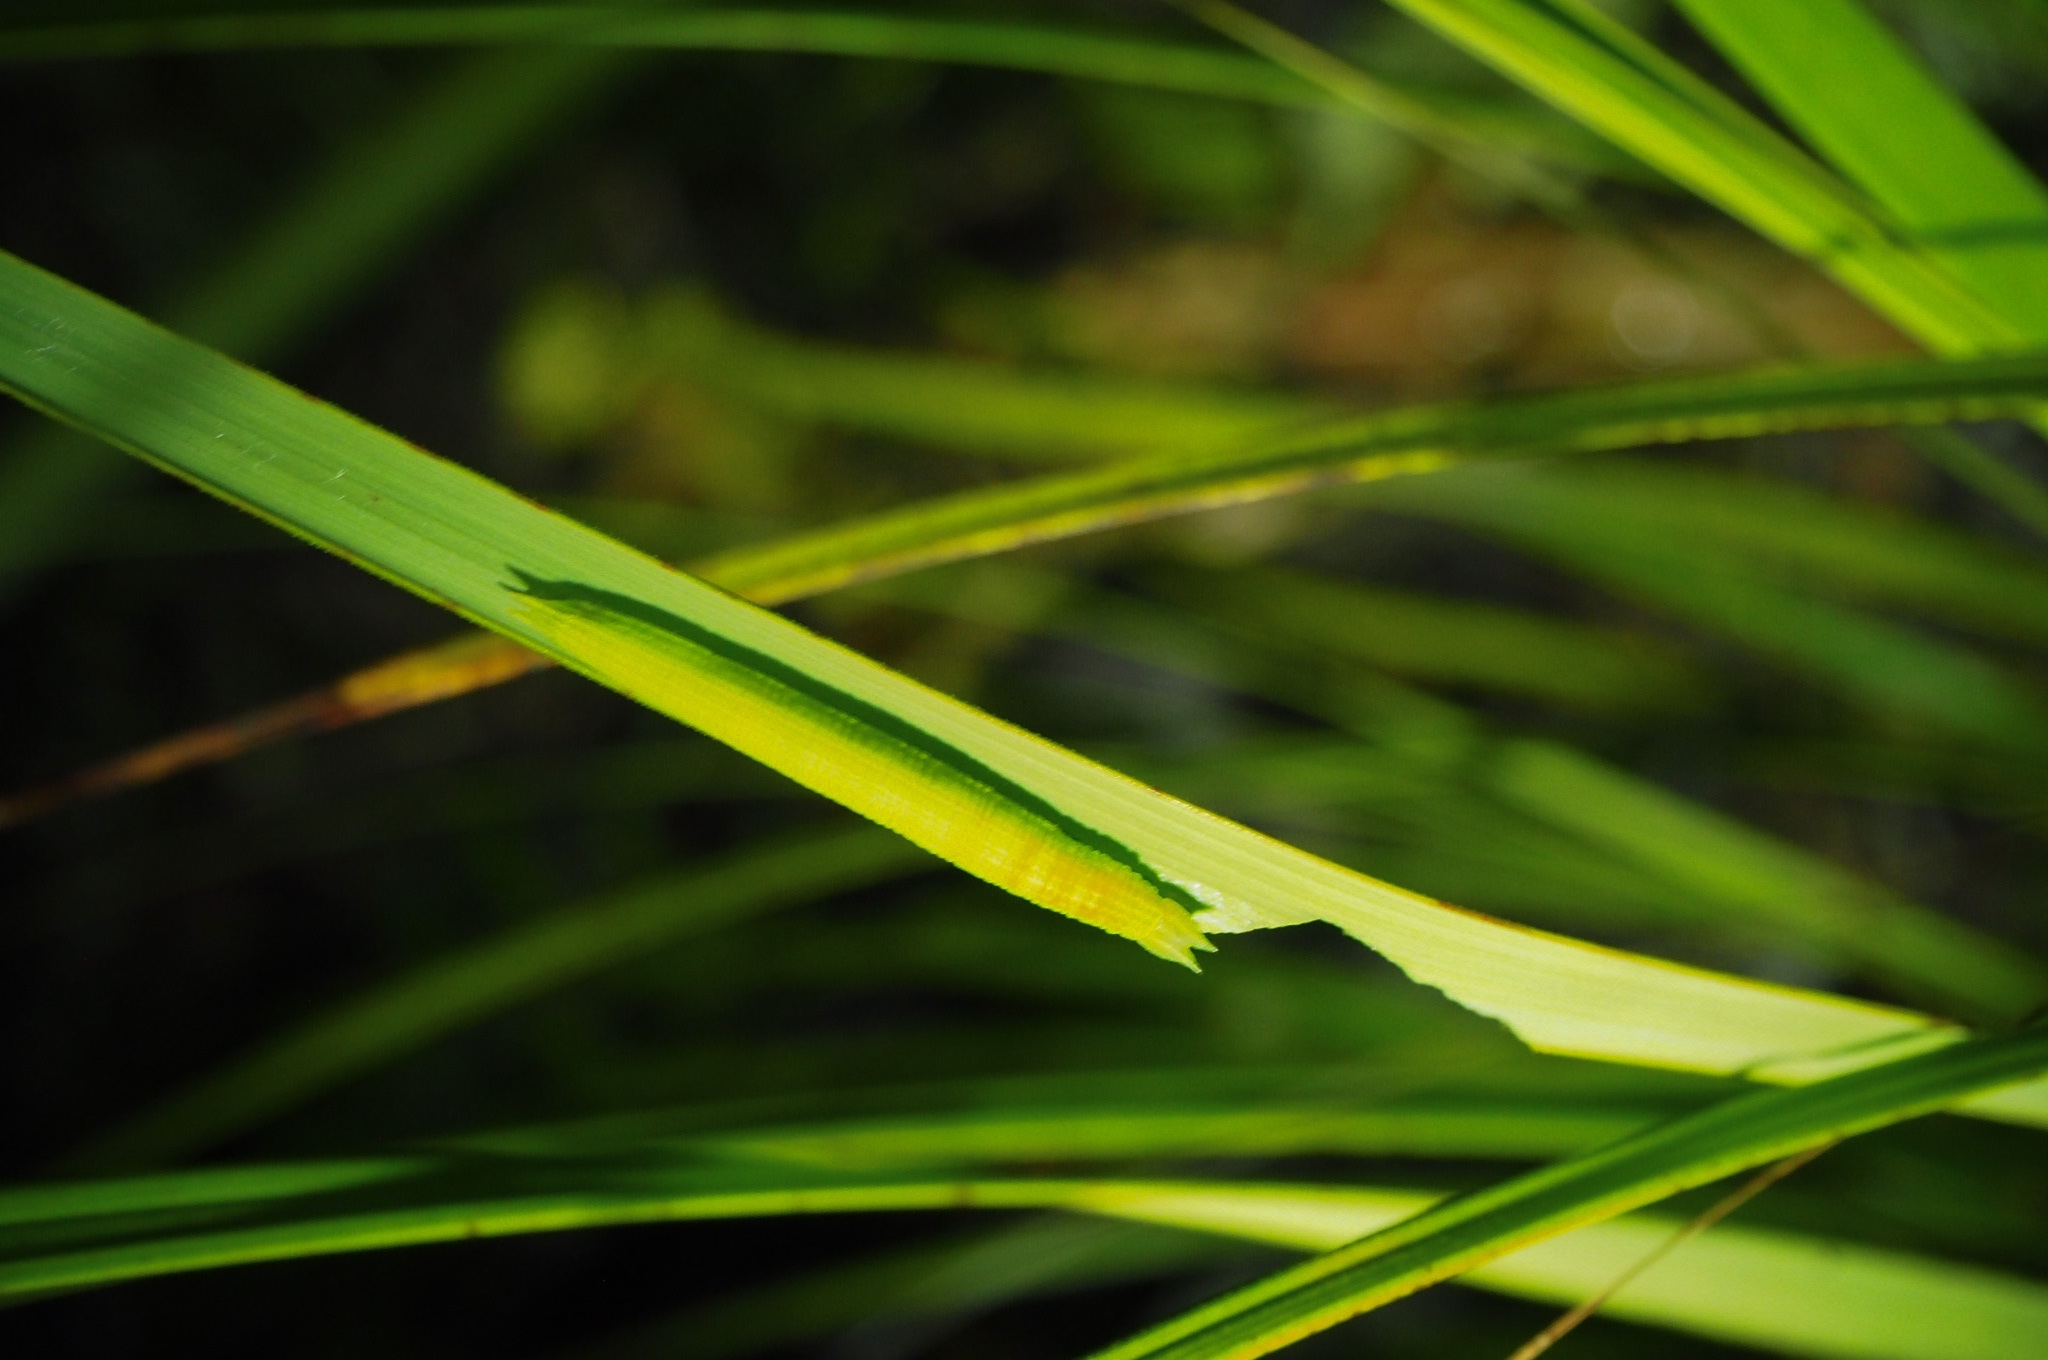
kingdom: Animalia
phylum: Arthropoda
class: Insecta
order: Lepidoptera
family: Nymphalidae
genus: Dodonidia
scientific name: Dodonidia helmsii
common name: Helm's butterfly
